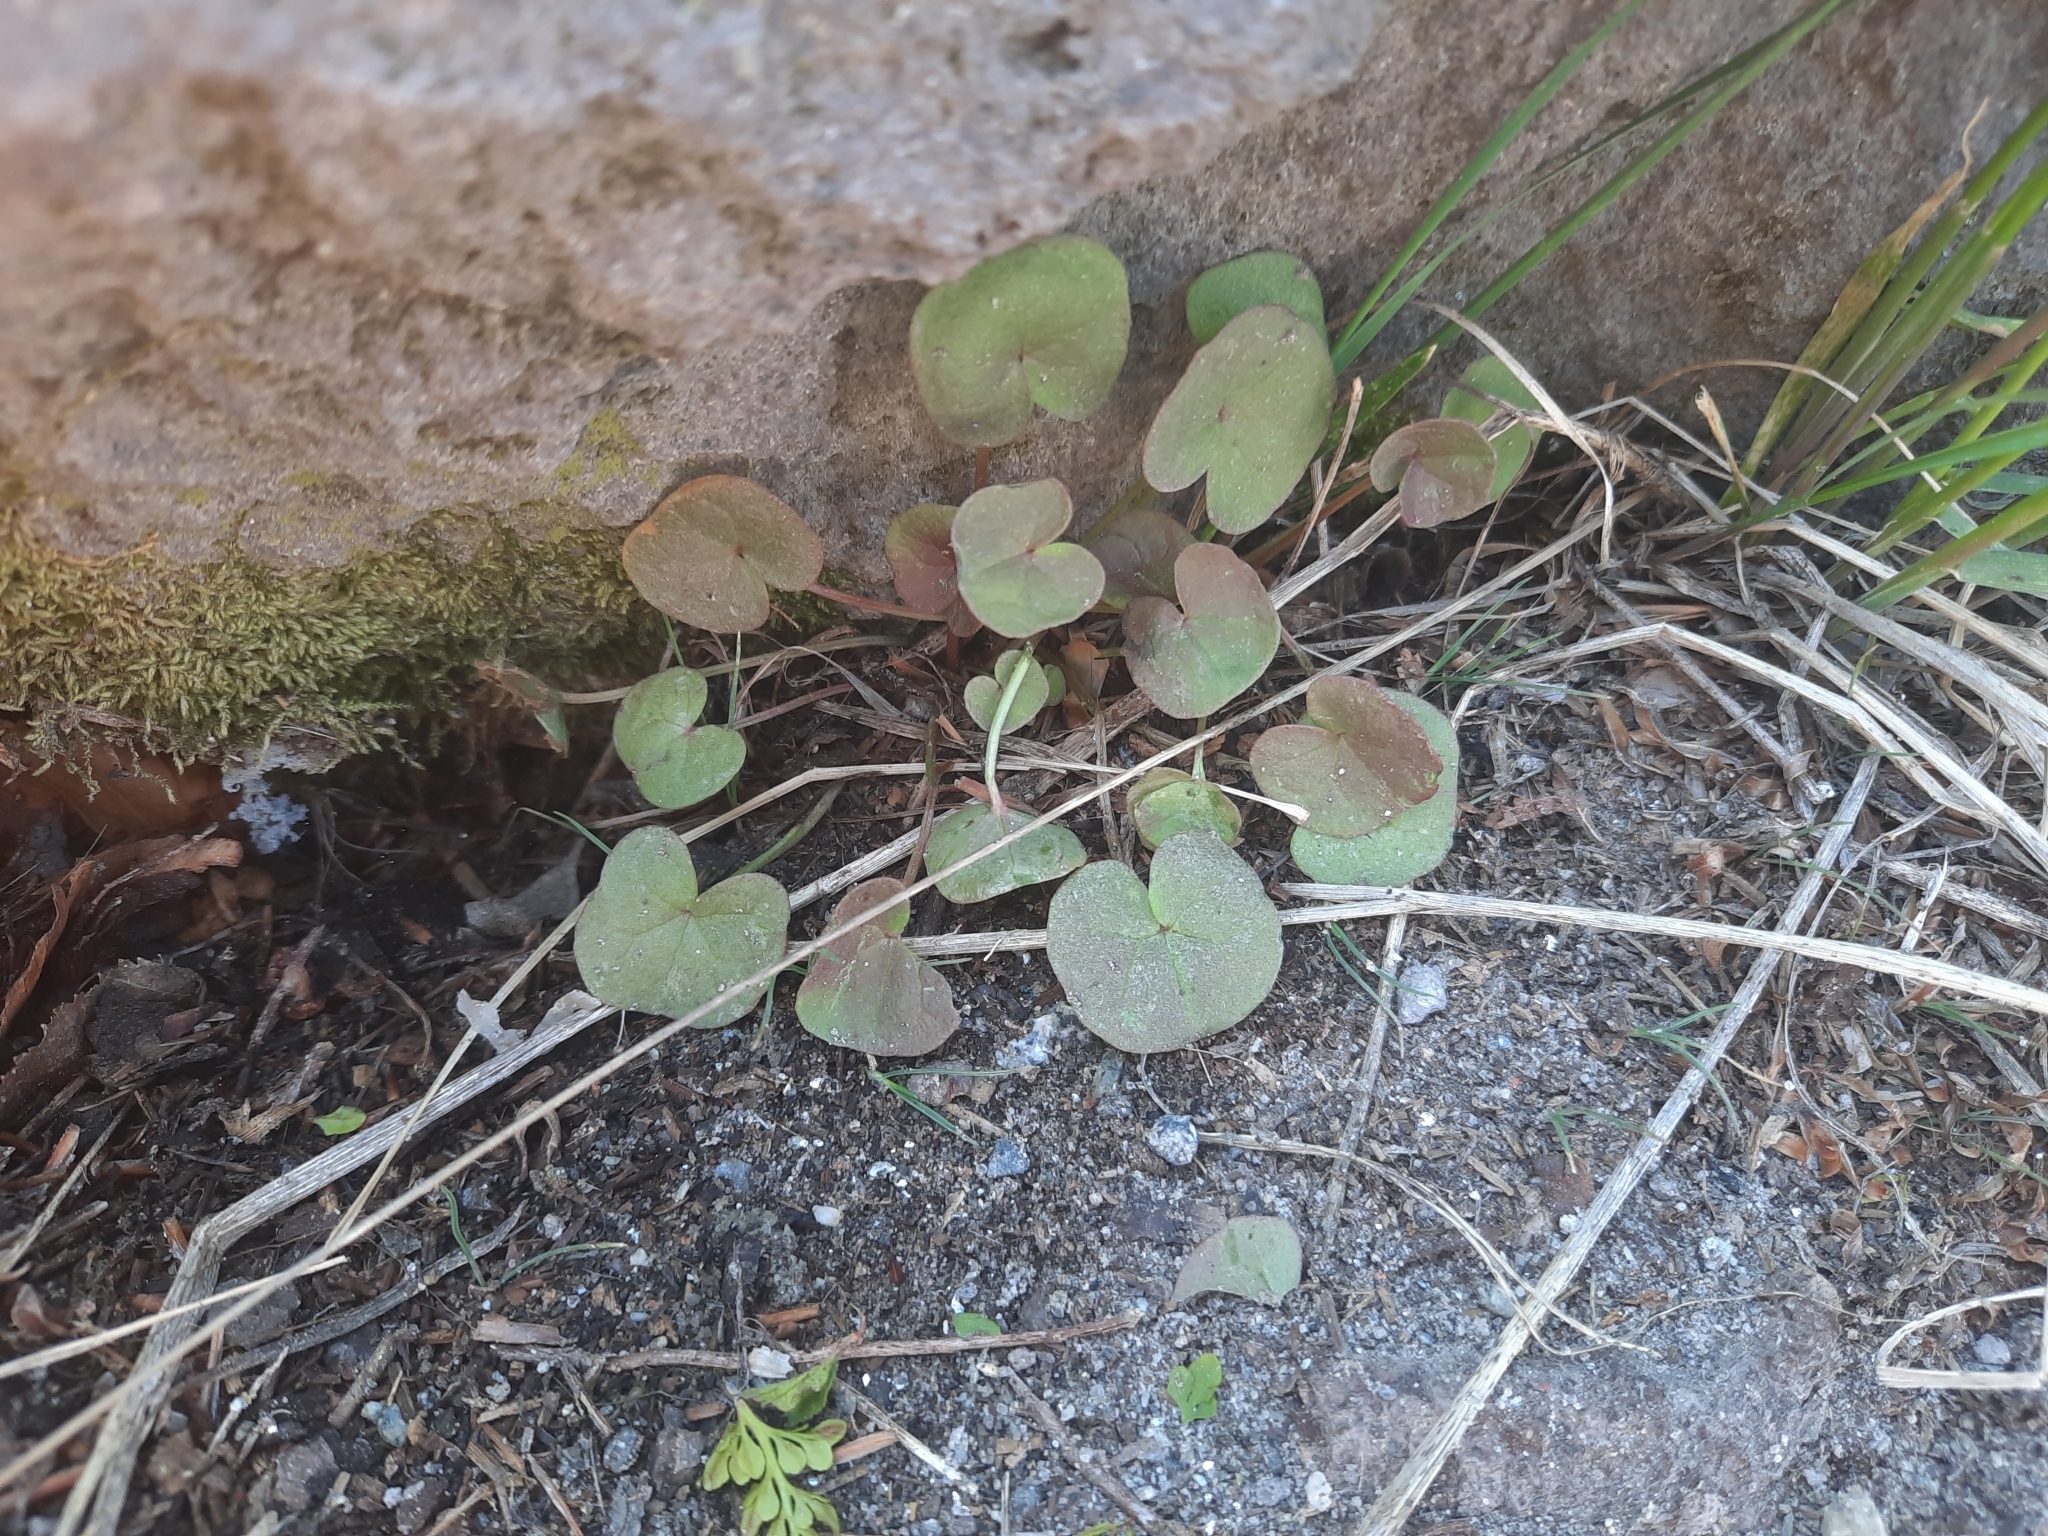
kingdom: Plantae
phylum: Tracheophyta
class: Magnoliopsida
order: Caryophyllales
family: Polygonaceae
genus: Oxyria
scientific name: Oxyria digyna
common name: Alpine mountain-sorrel
